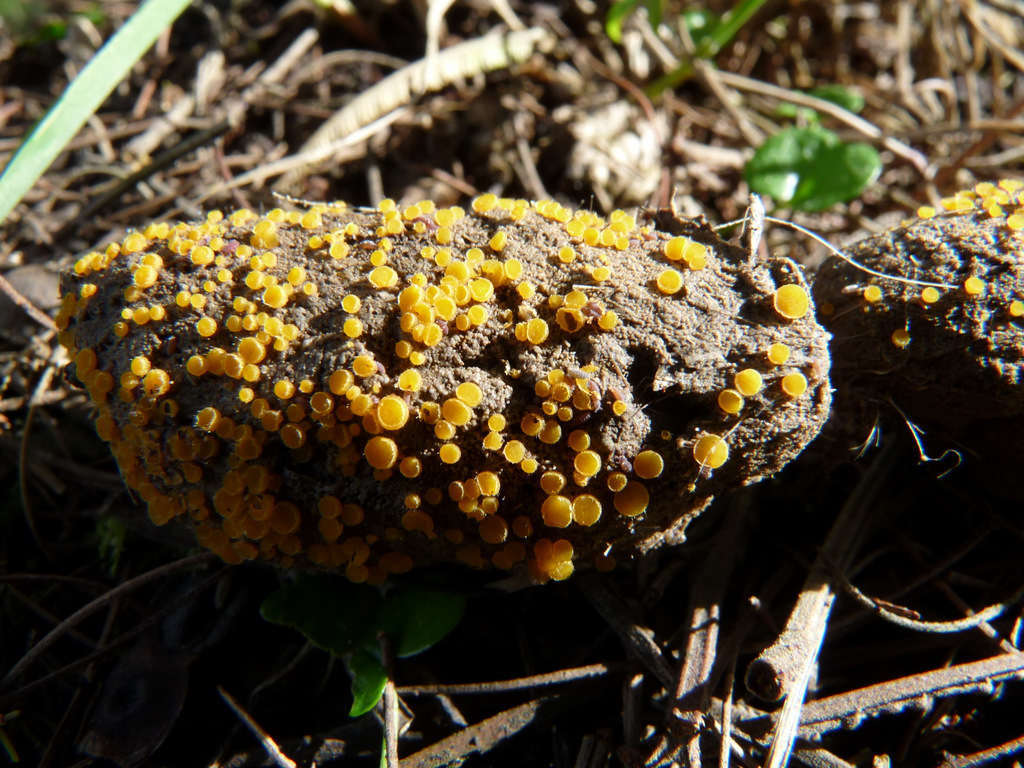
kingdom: Fungi
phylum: Ascomycota
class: Pezizomycetes
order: Pezizales
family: Pyronemataceae
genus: Cheilymenia
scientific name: Cheilymenia raripila
